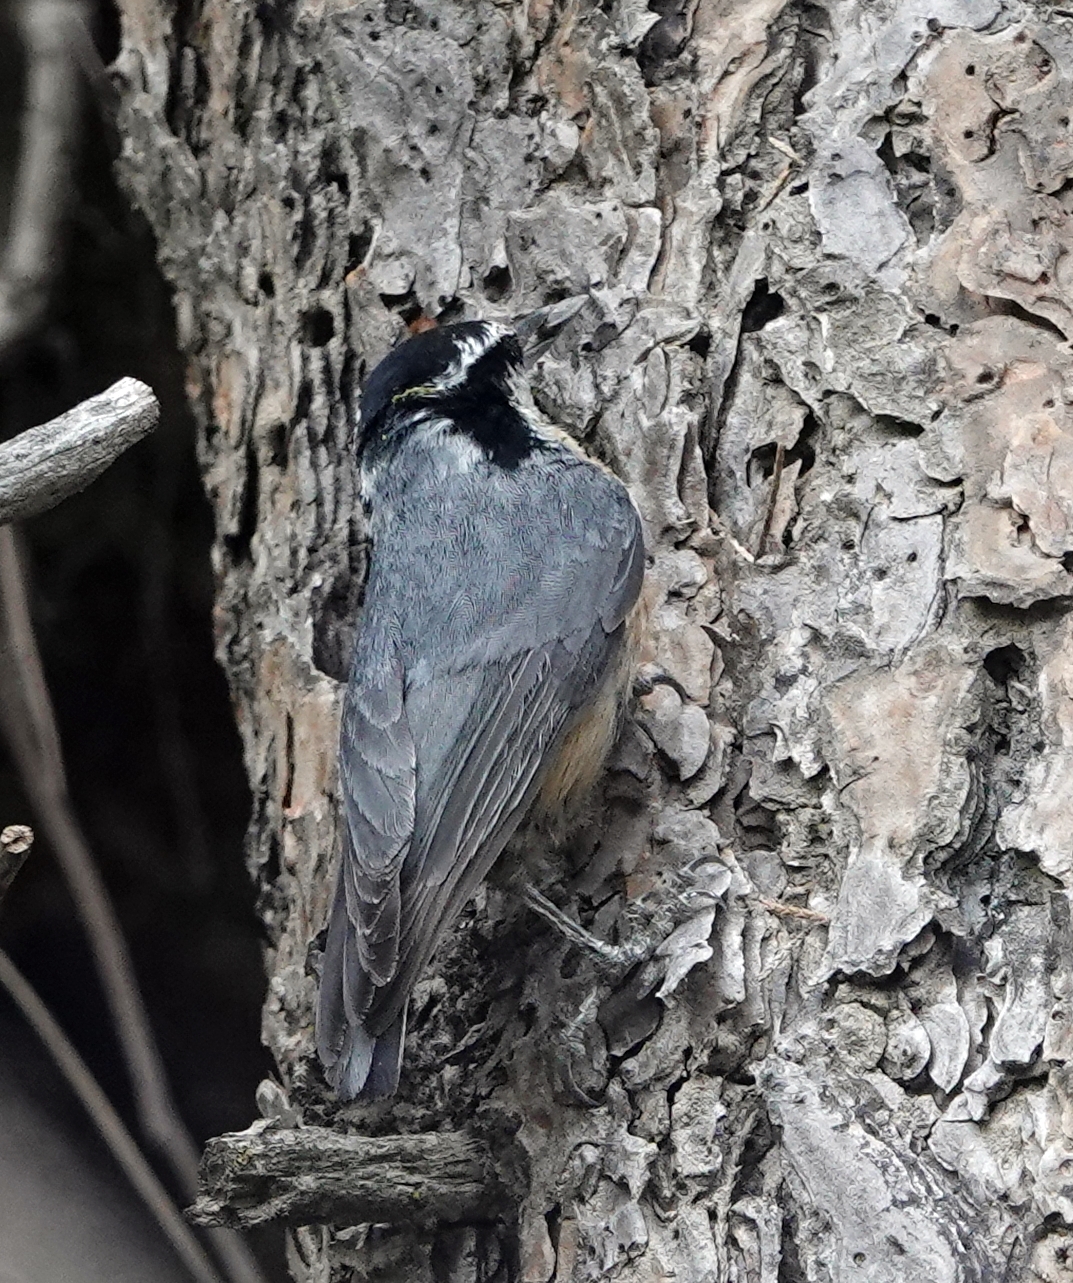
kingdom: Animalia
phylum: Chordata
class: Aves
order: Passeriformes
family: Sittidae
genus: Sitta
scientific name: Sitta canadensis
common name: Red-breasted nuthatch
